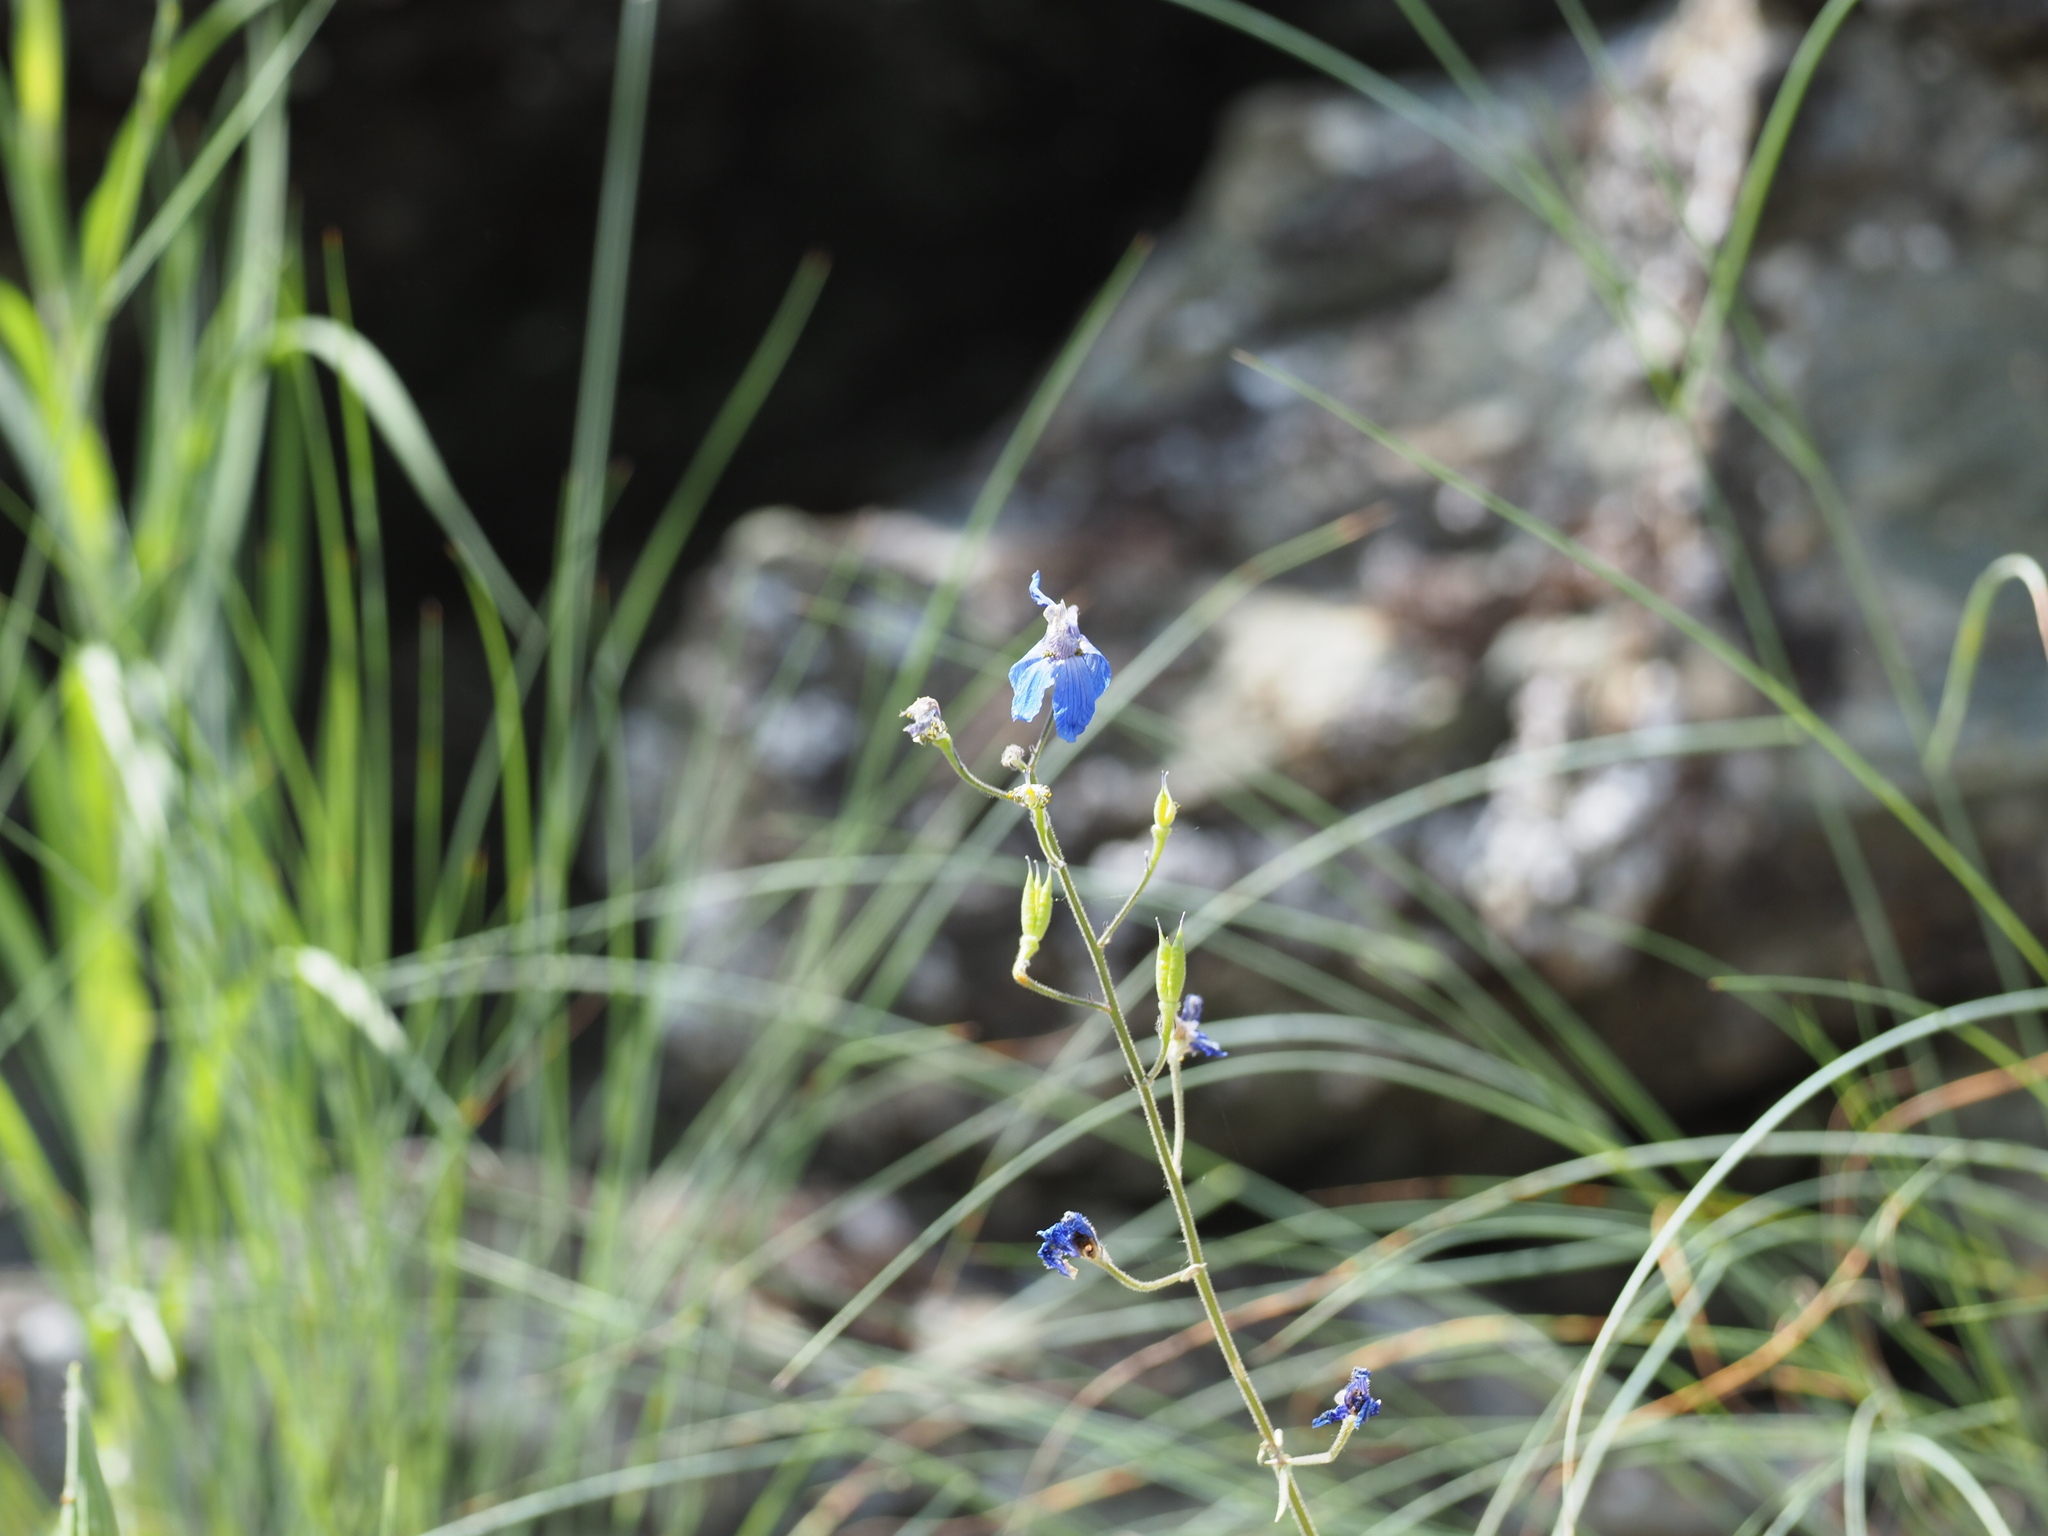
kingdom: Plantae
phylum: Tracheophyta
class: Magnoliopsida
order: Ranunculales
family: Ranunculaceae
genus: Delphinium
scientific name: Delphinium nuttallianum
